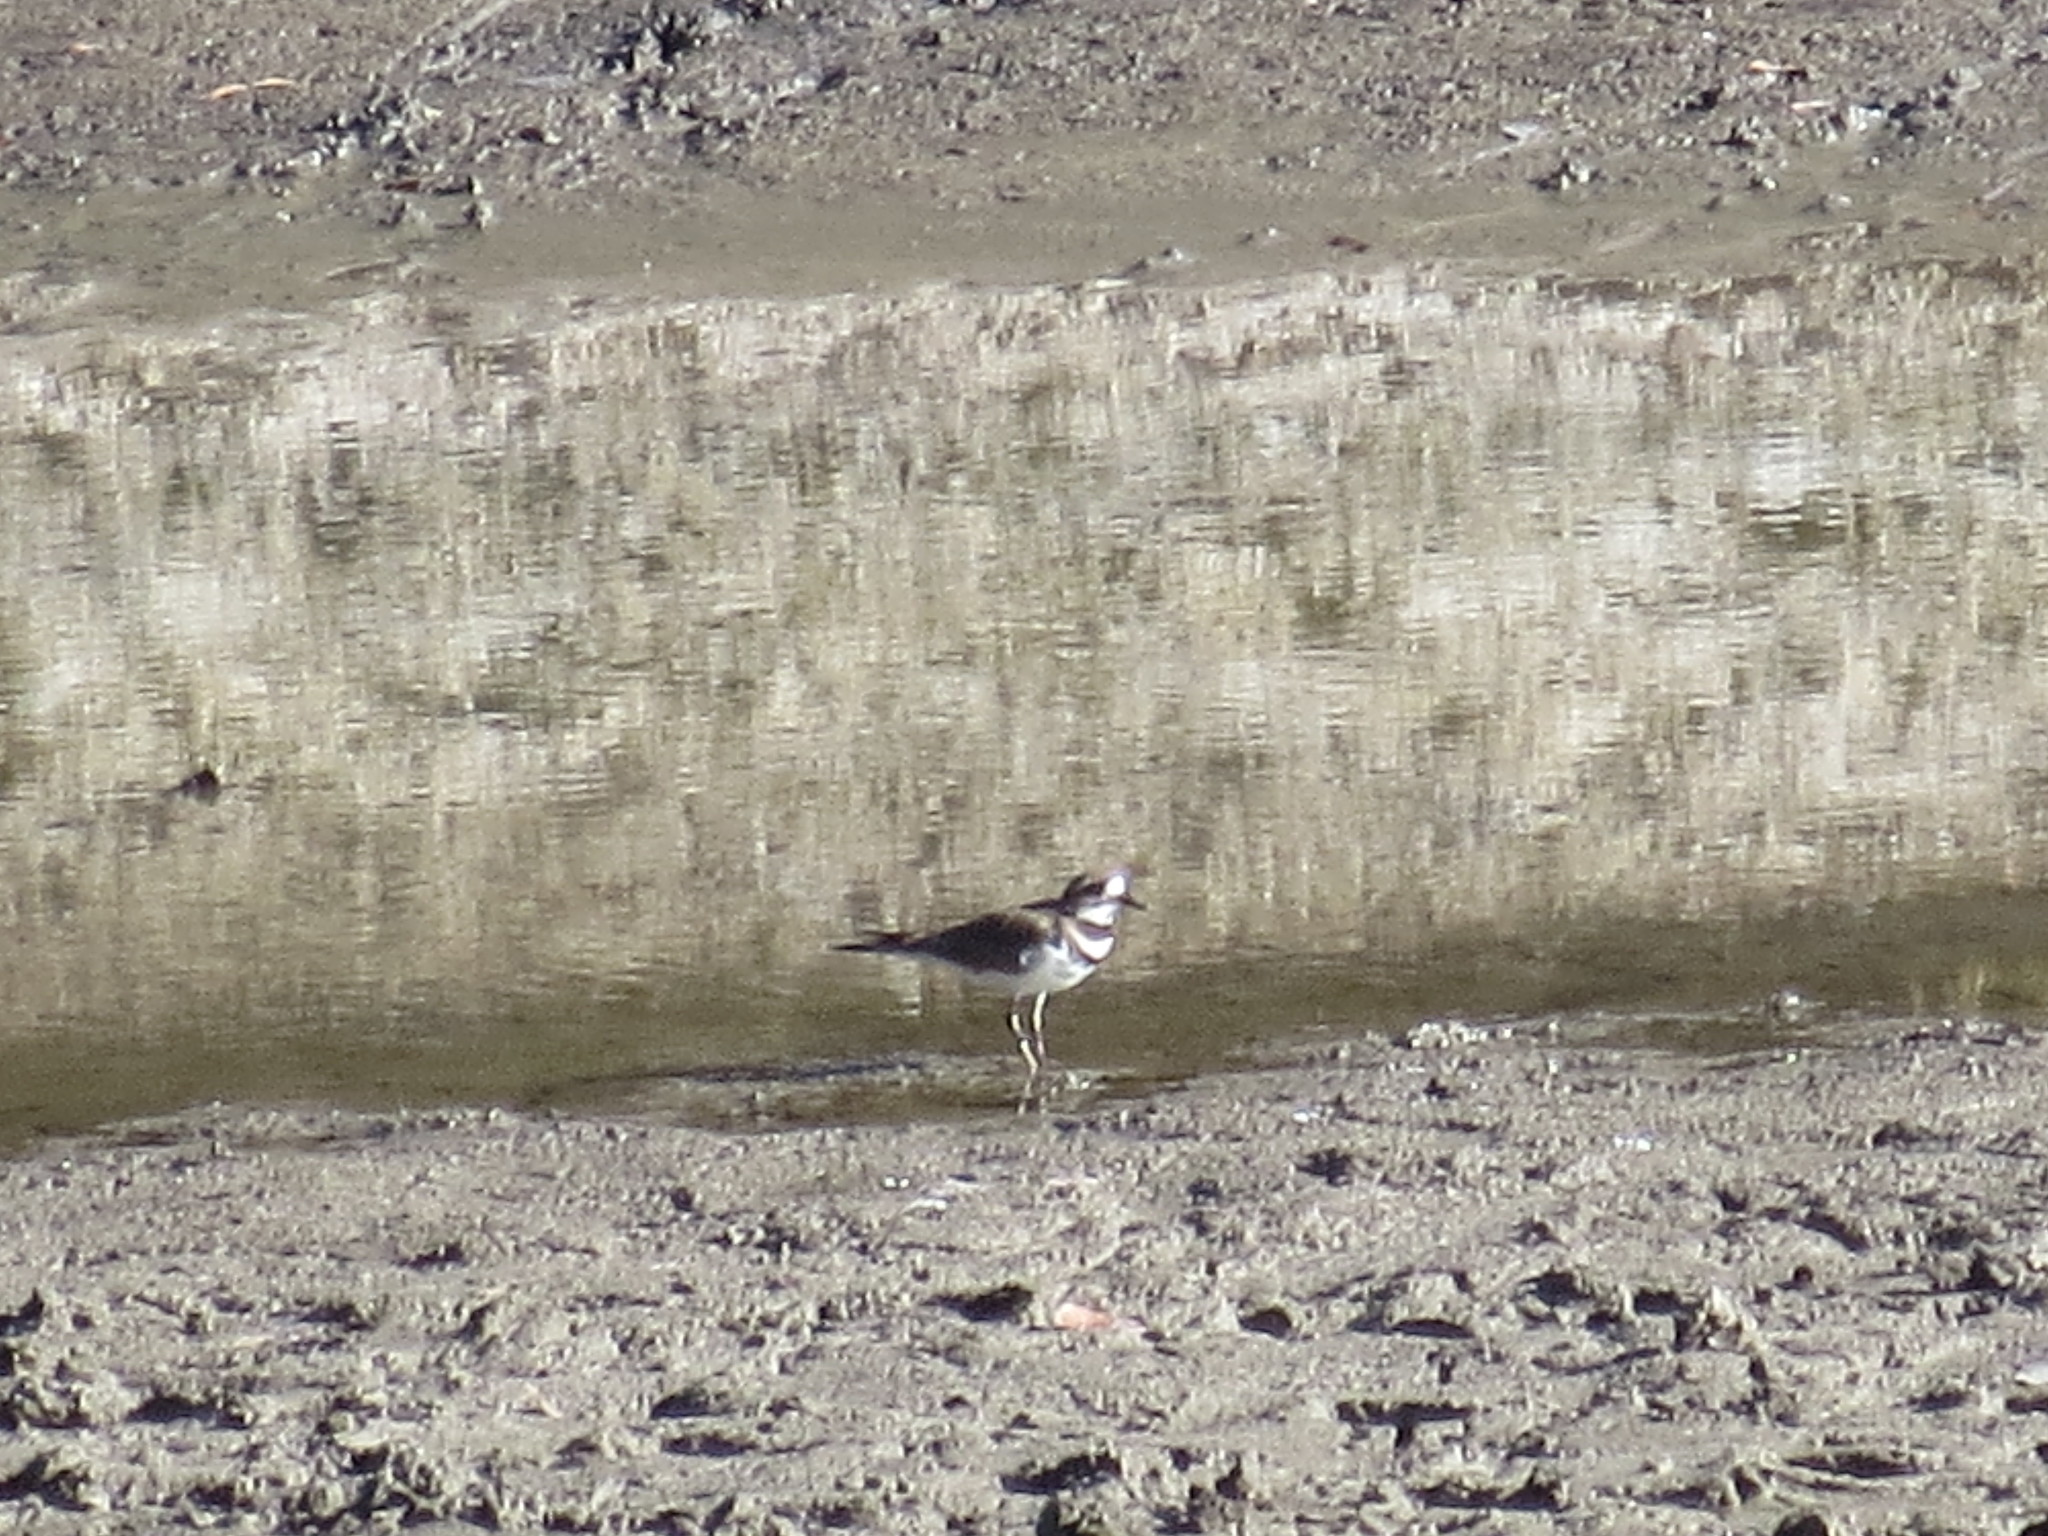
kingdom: Animalia
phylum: Chordata
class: Aves
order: Charadriiformes
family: Charadriidae
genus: Charadrius
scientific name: Charadrius vociferus
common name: Killdeer
